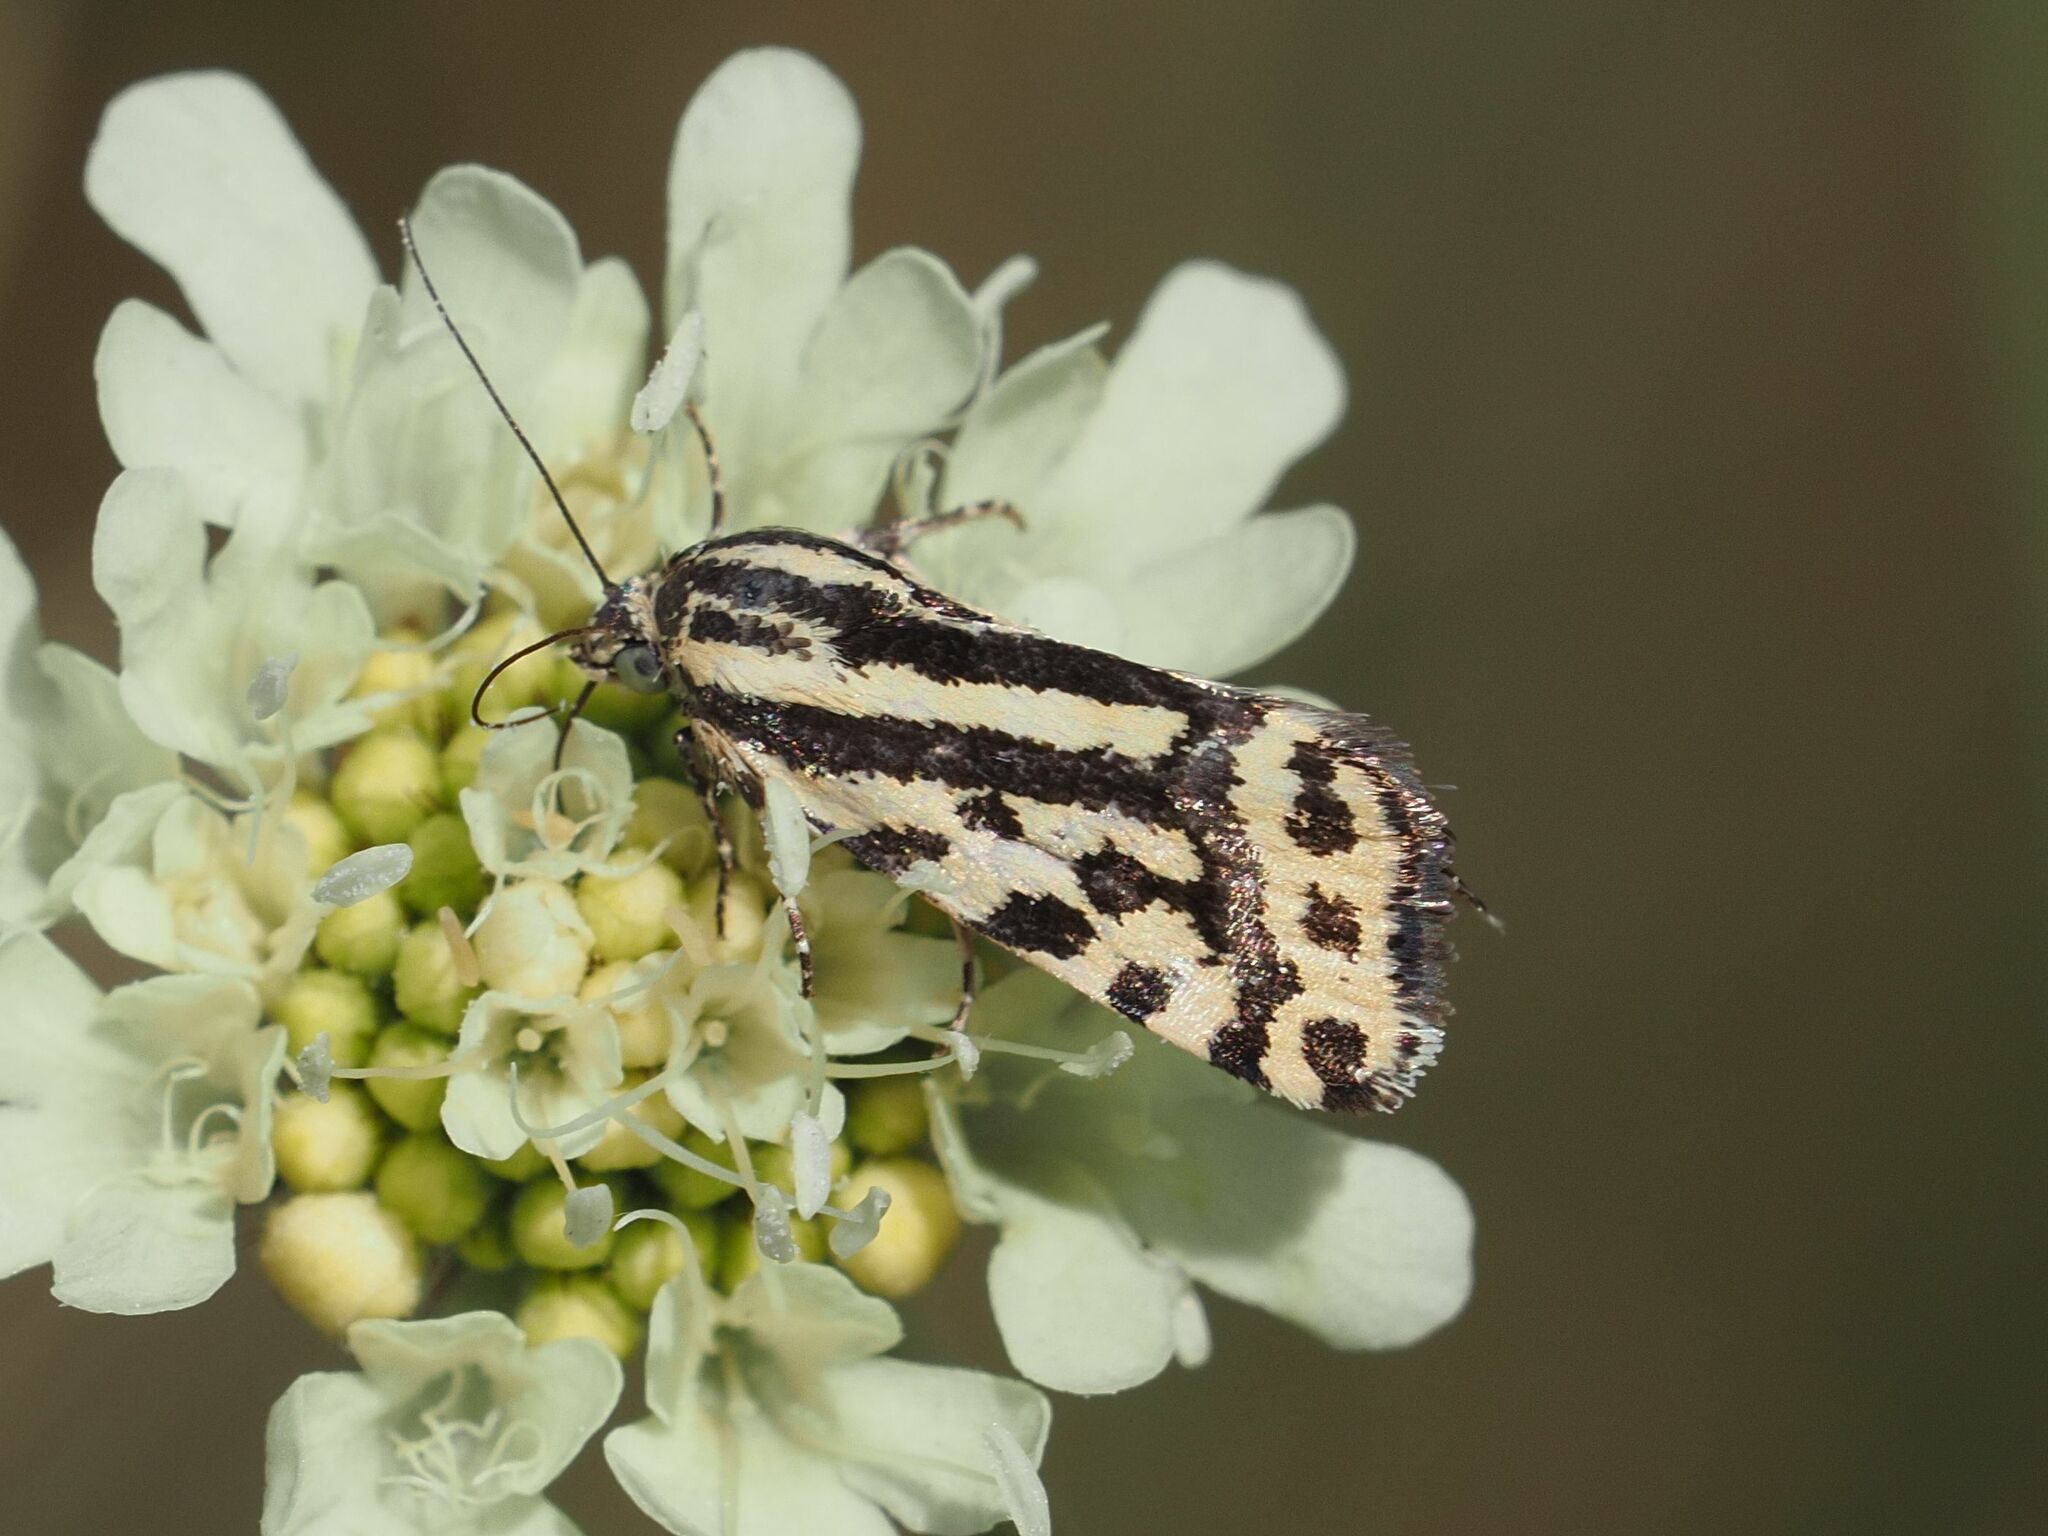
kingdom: Animalia
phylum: Arthropoda
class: Insecta
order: Lepidoptera
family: Noctuidae
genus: Acontia
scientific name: Acontia trabealis
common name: Spotted sulphur
